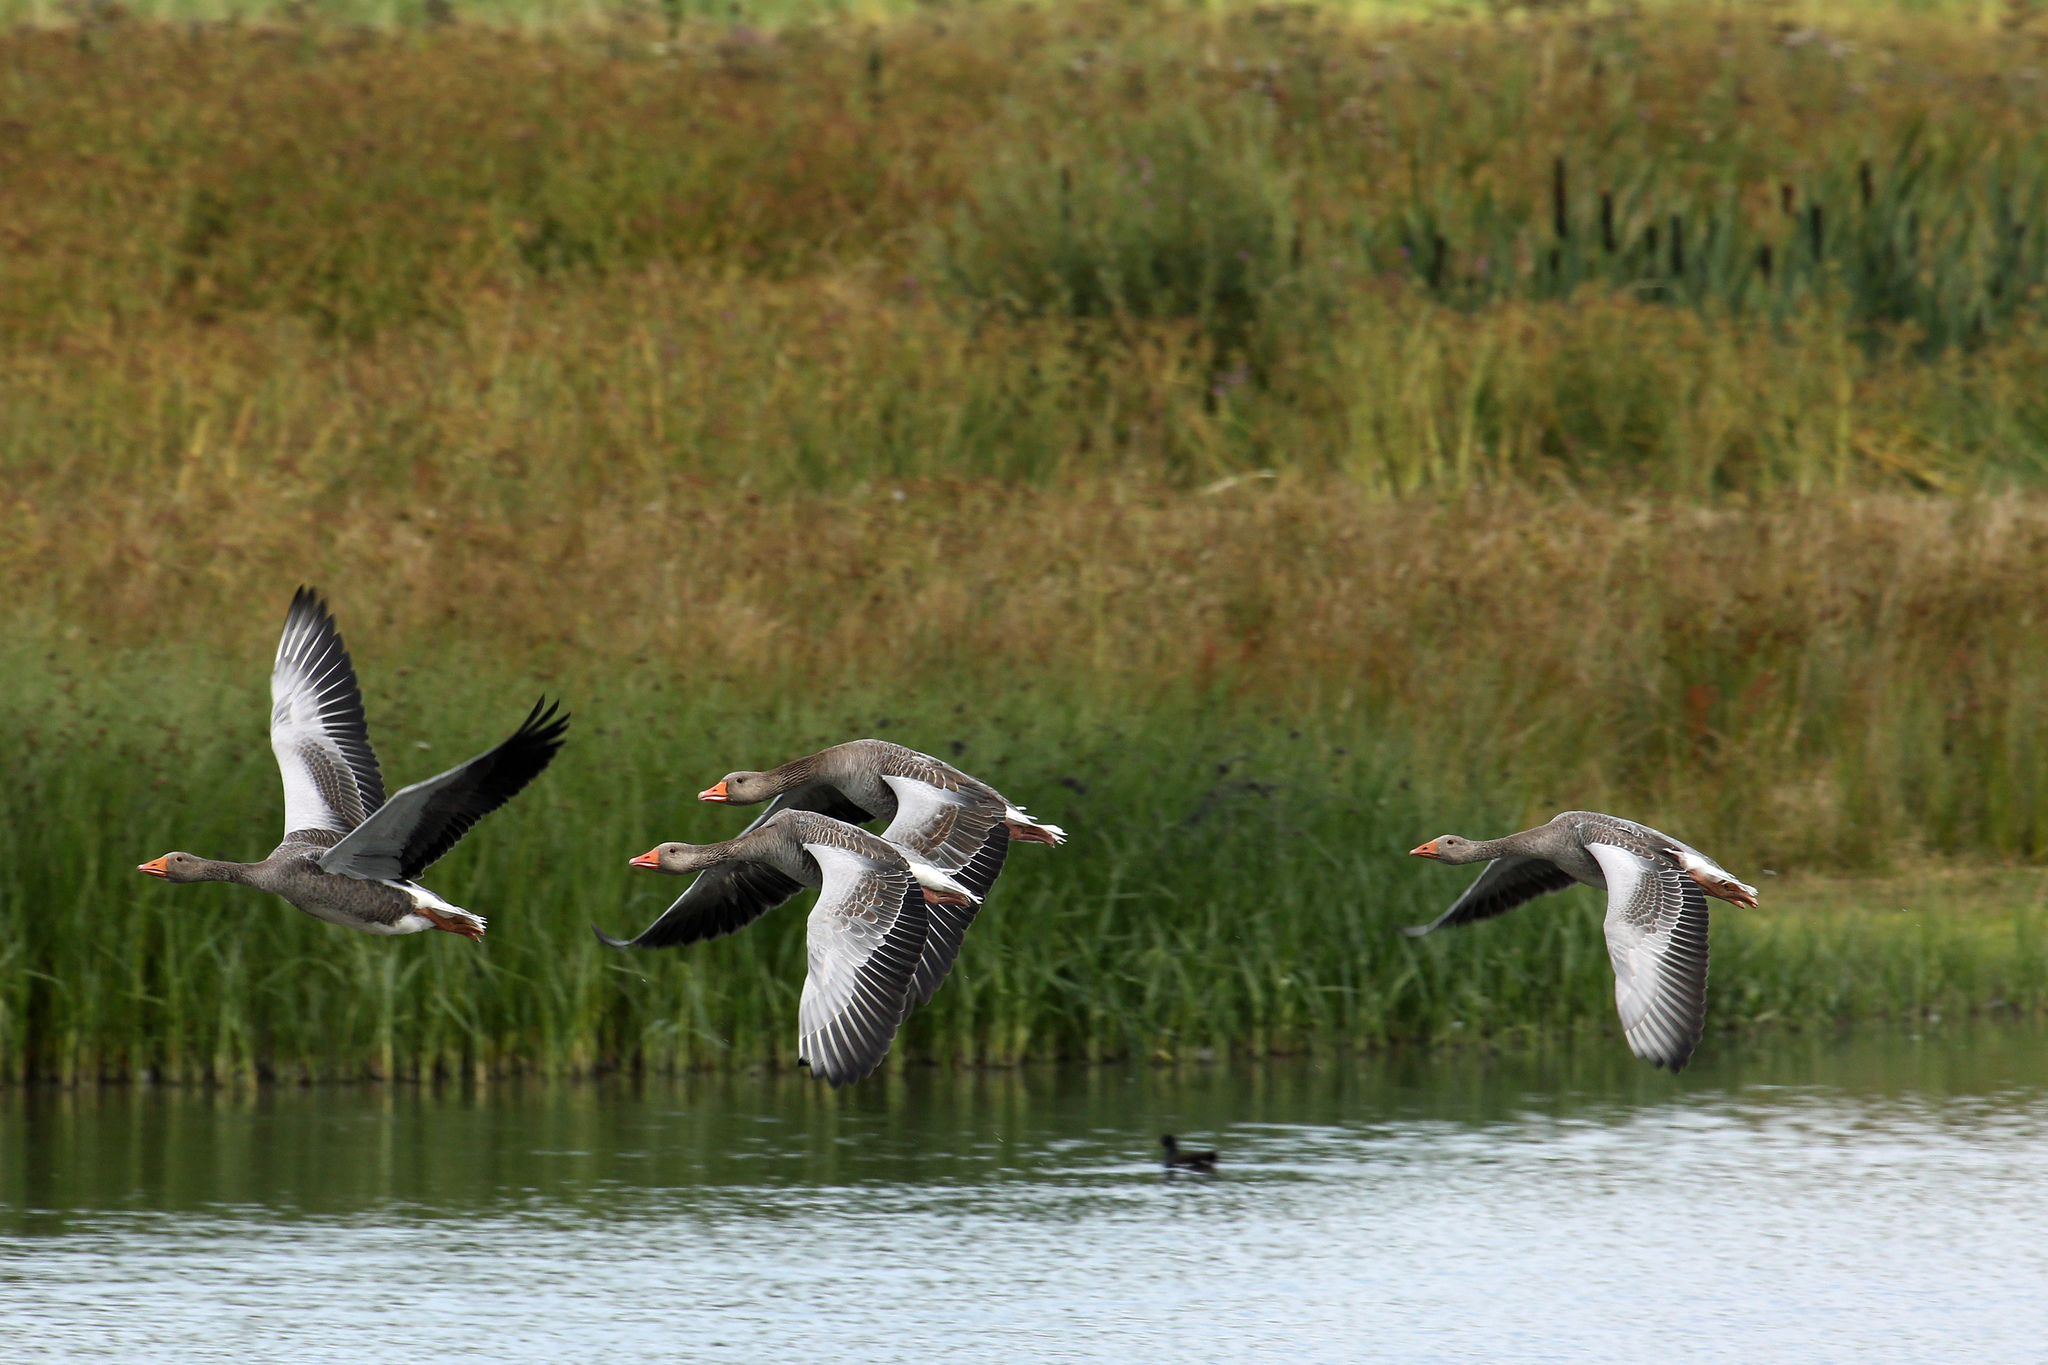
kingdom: Animalia
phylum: Chordata
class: Aves
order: Anseriformes
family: Anatidae
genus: Anser
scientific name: Anser anser
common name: Greylag goose
